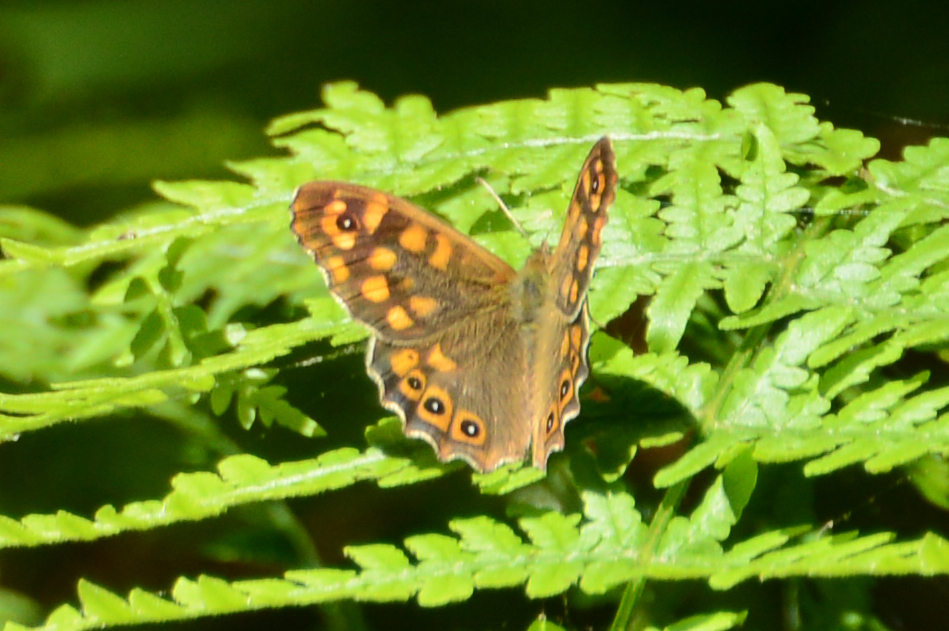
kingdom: Animalia
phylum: Arthropoda
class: Insecta
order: Lepidoptera
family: Nymphalidae
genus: Pararge
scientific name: Pararge aegeria
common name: Speckled wood
